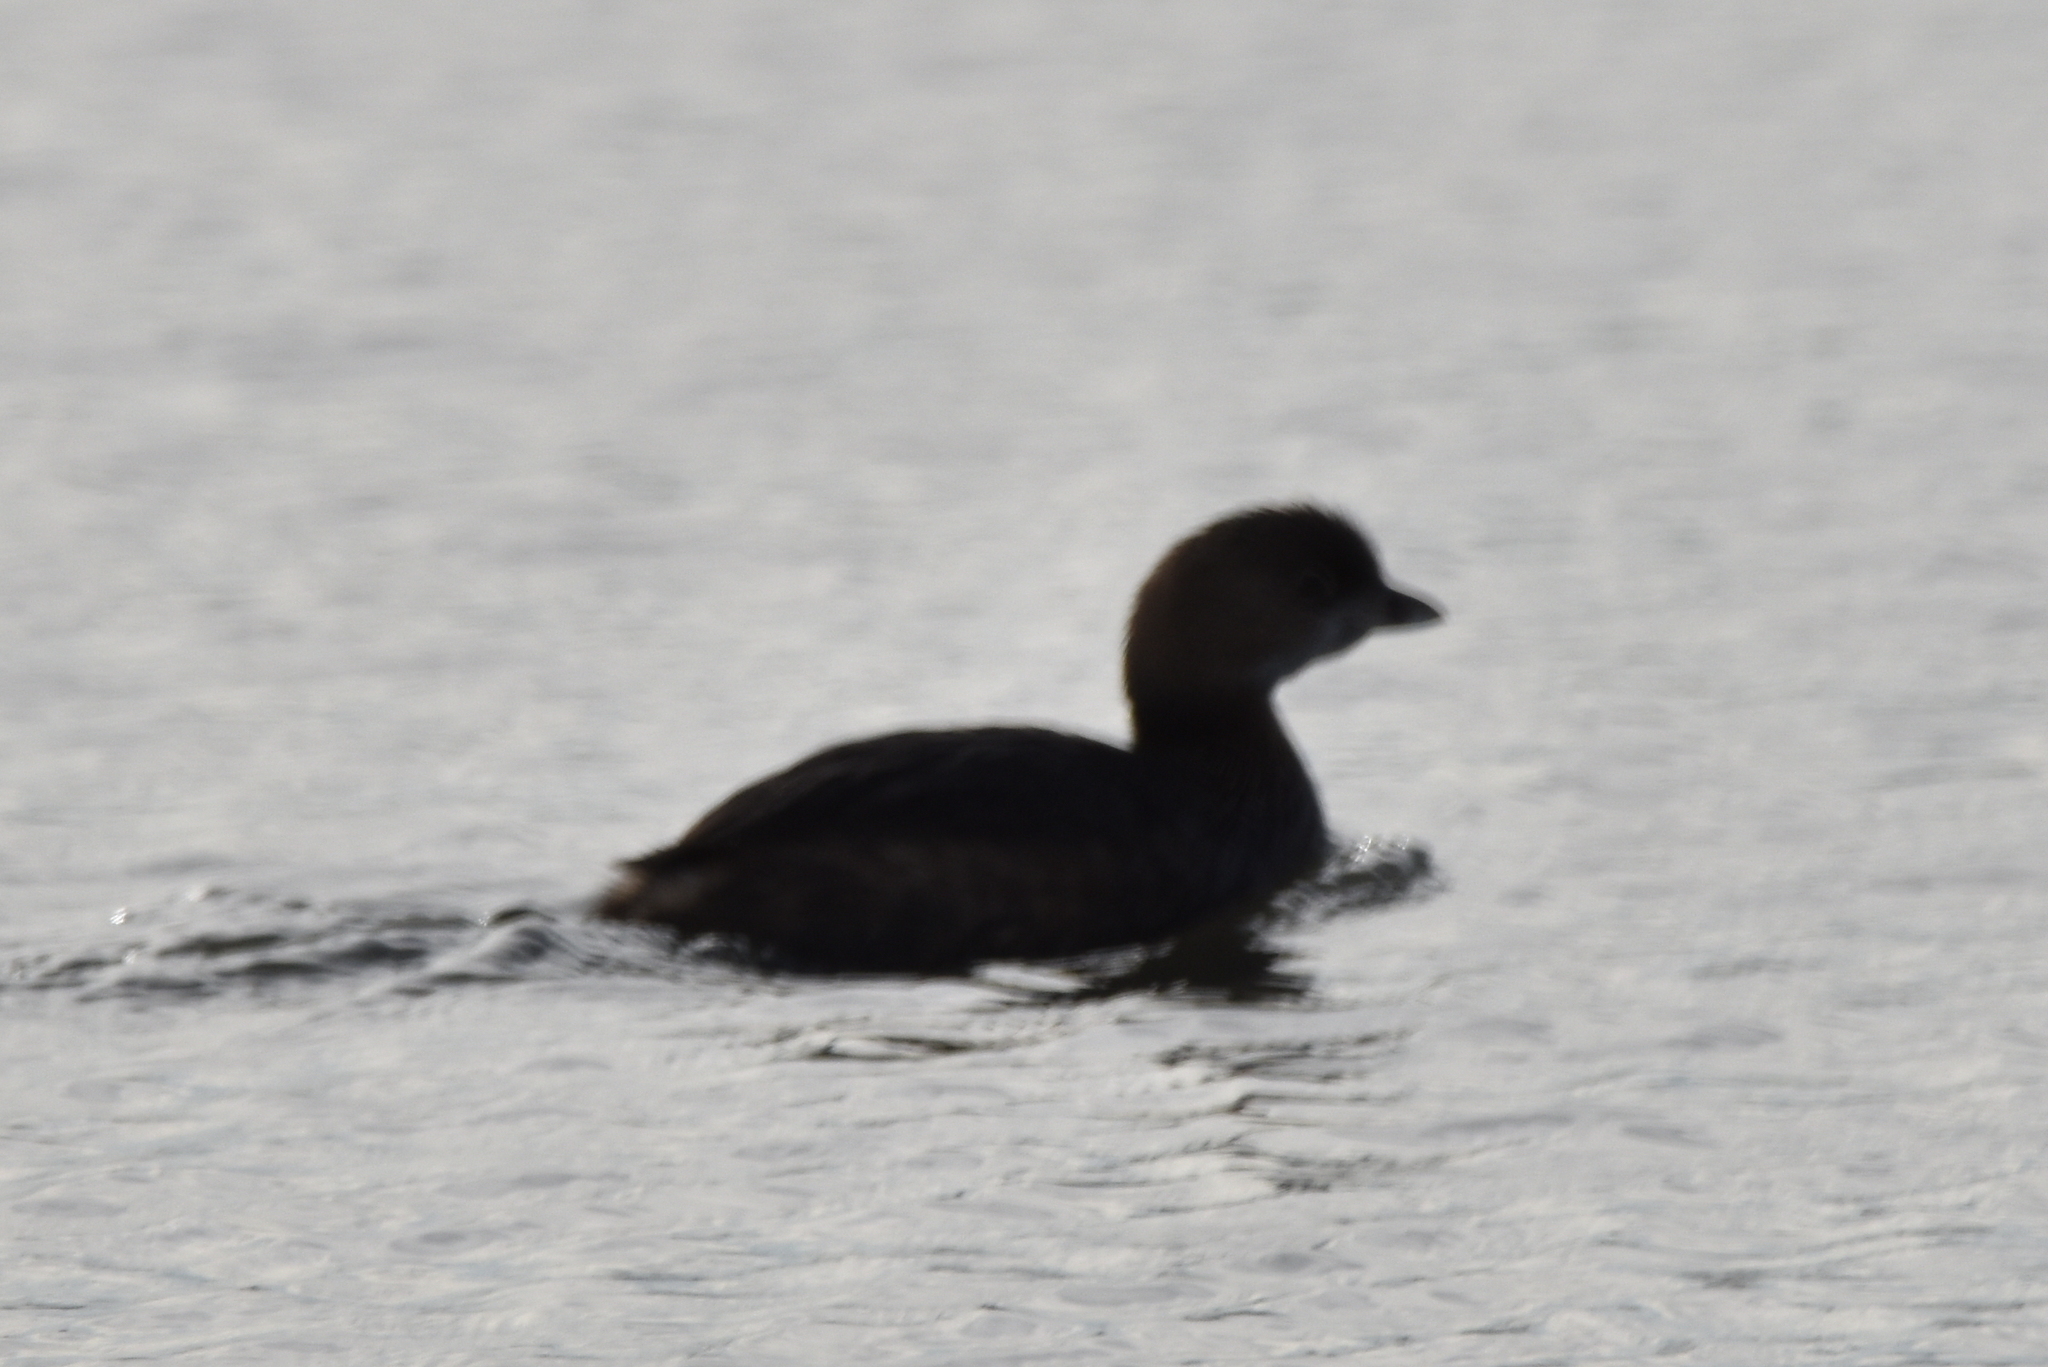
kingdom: Animalia
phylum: Chordata
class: Aves
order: Podicipediformes
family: Podicipedidae
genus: Podilymbus
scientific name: Podilymbus podiceps
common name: Pied-billed grebe
